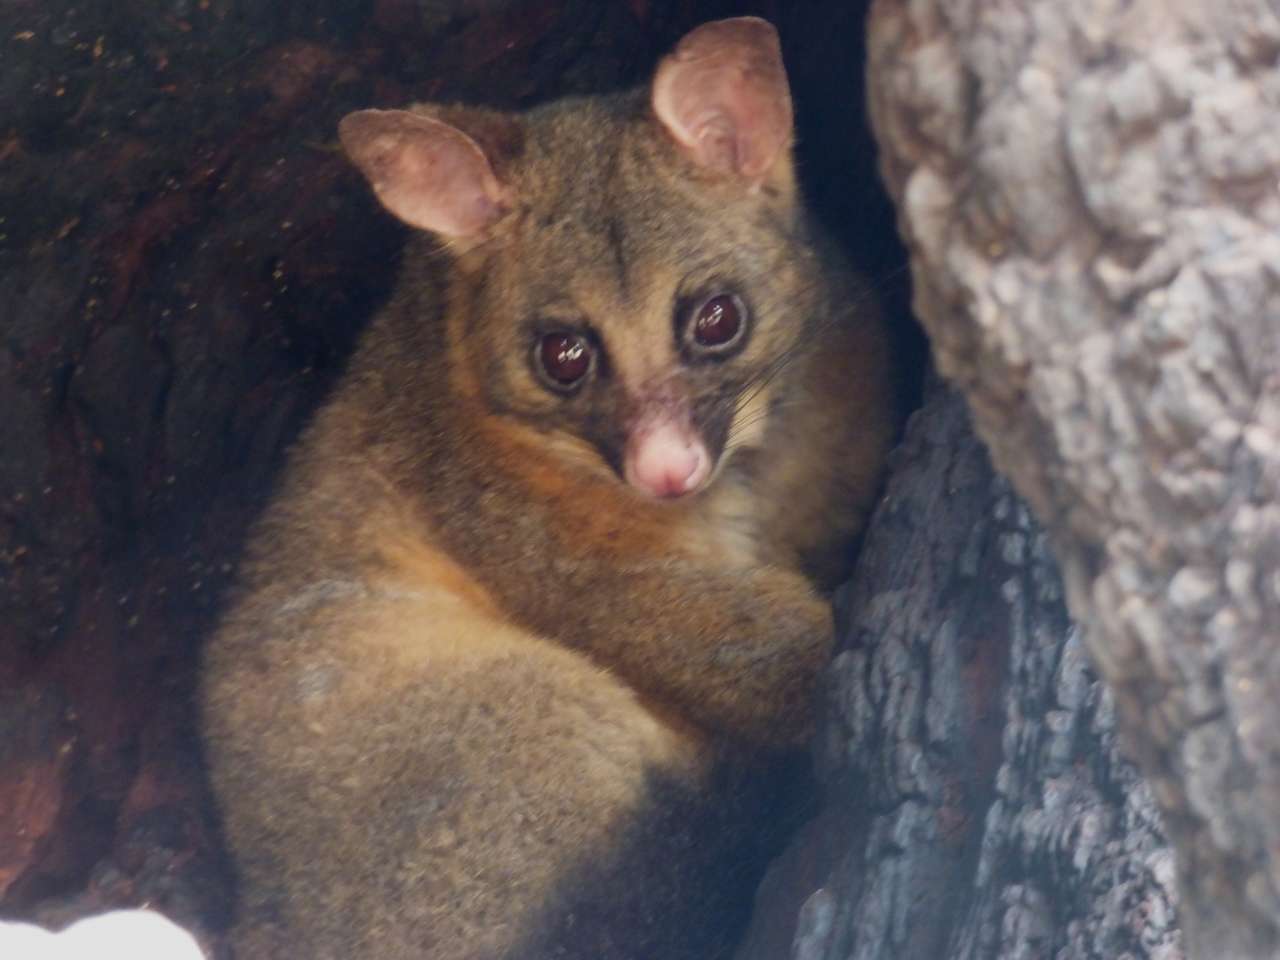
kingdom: Animalia
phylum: Chordata
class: Mammalia
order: Diprotodontia
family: Phalangeridae
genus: Trichosurus
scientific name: Trichosurus vulpecula
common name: Common brushtail
